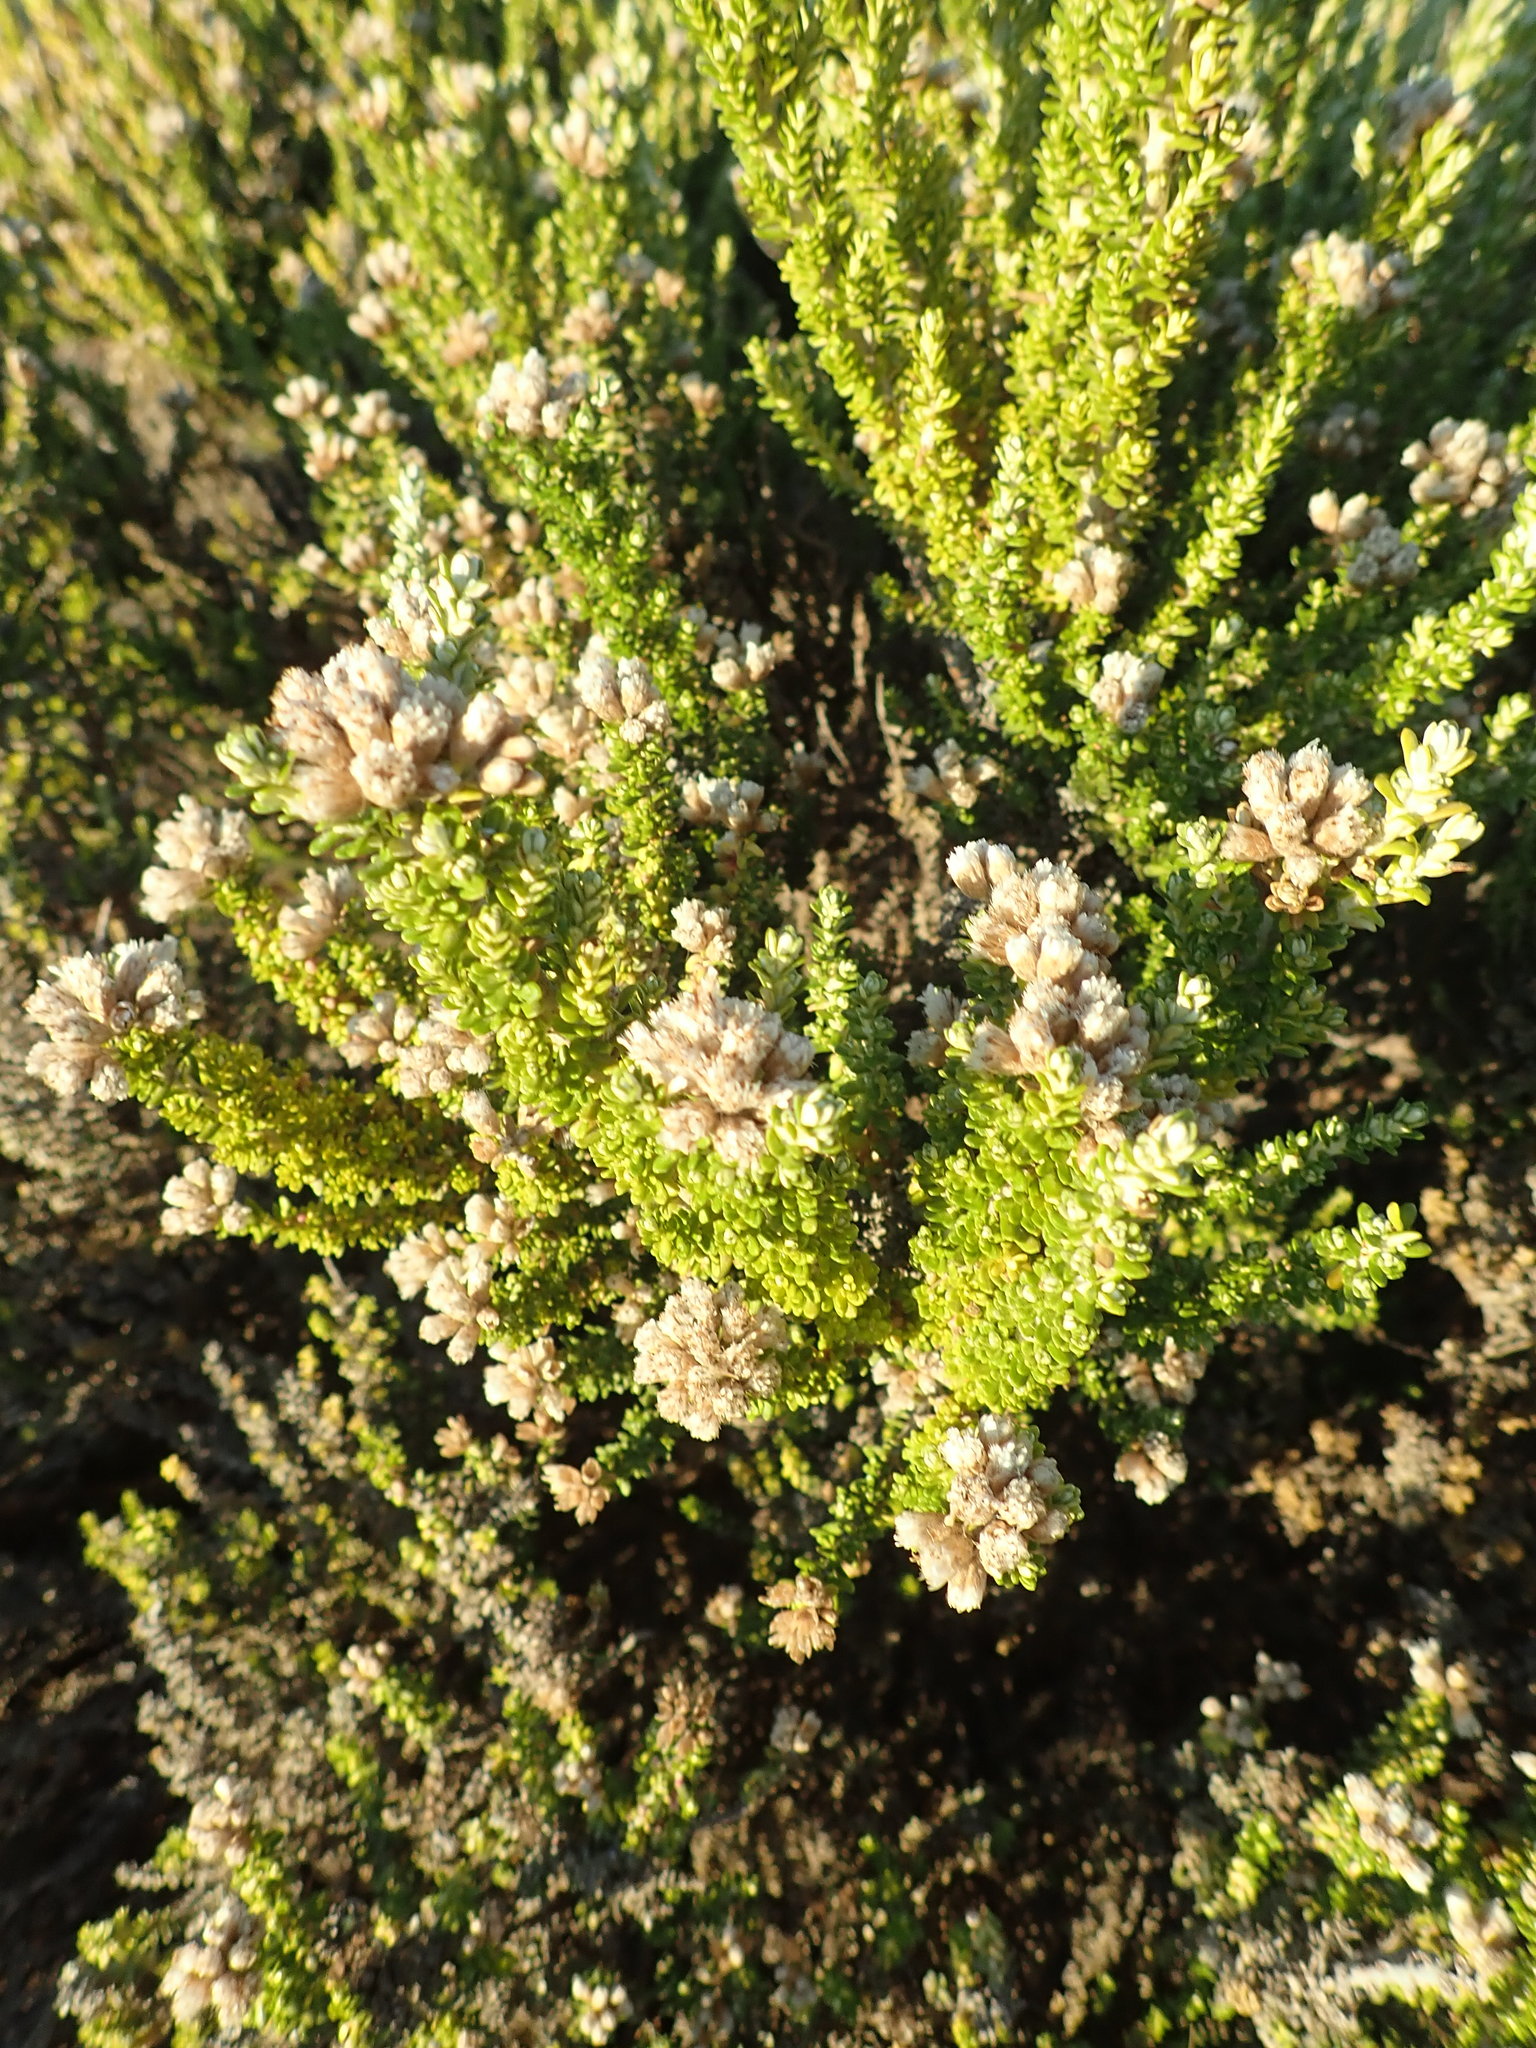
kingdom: Plantae
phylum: Tracheophyta
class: Magnoliopsida
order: Asterales
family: Asteraceae
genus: Ozothamnus
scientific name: Ozothamnus leptophyllus
